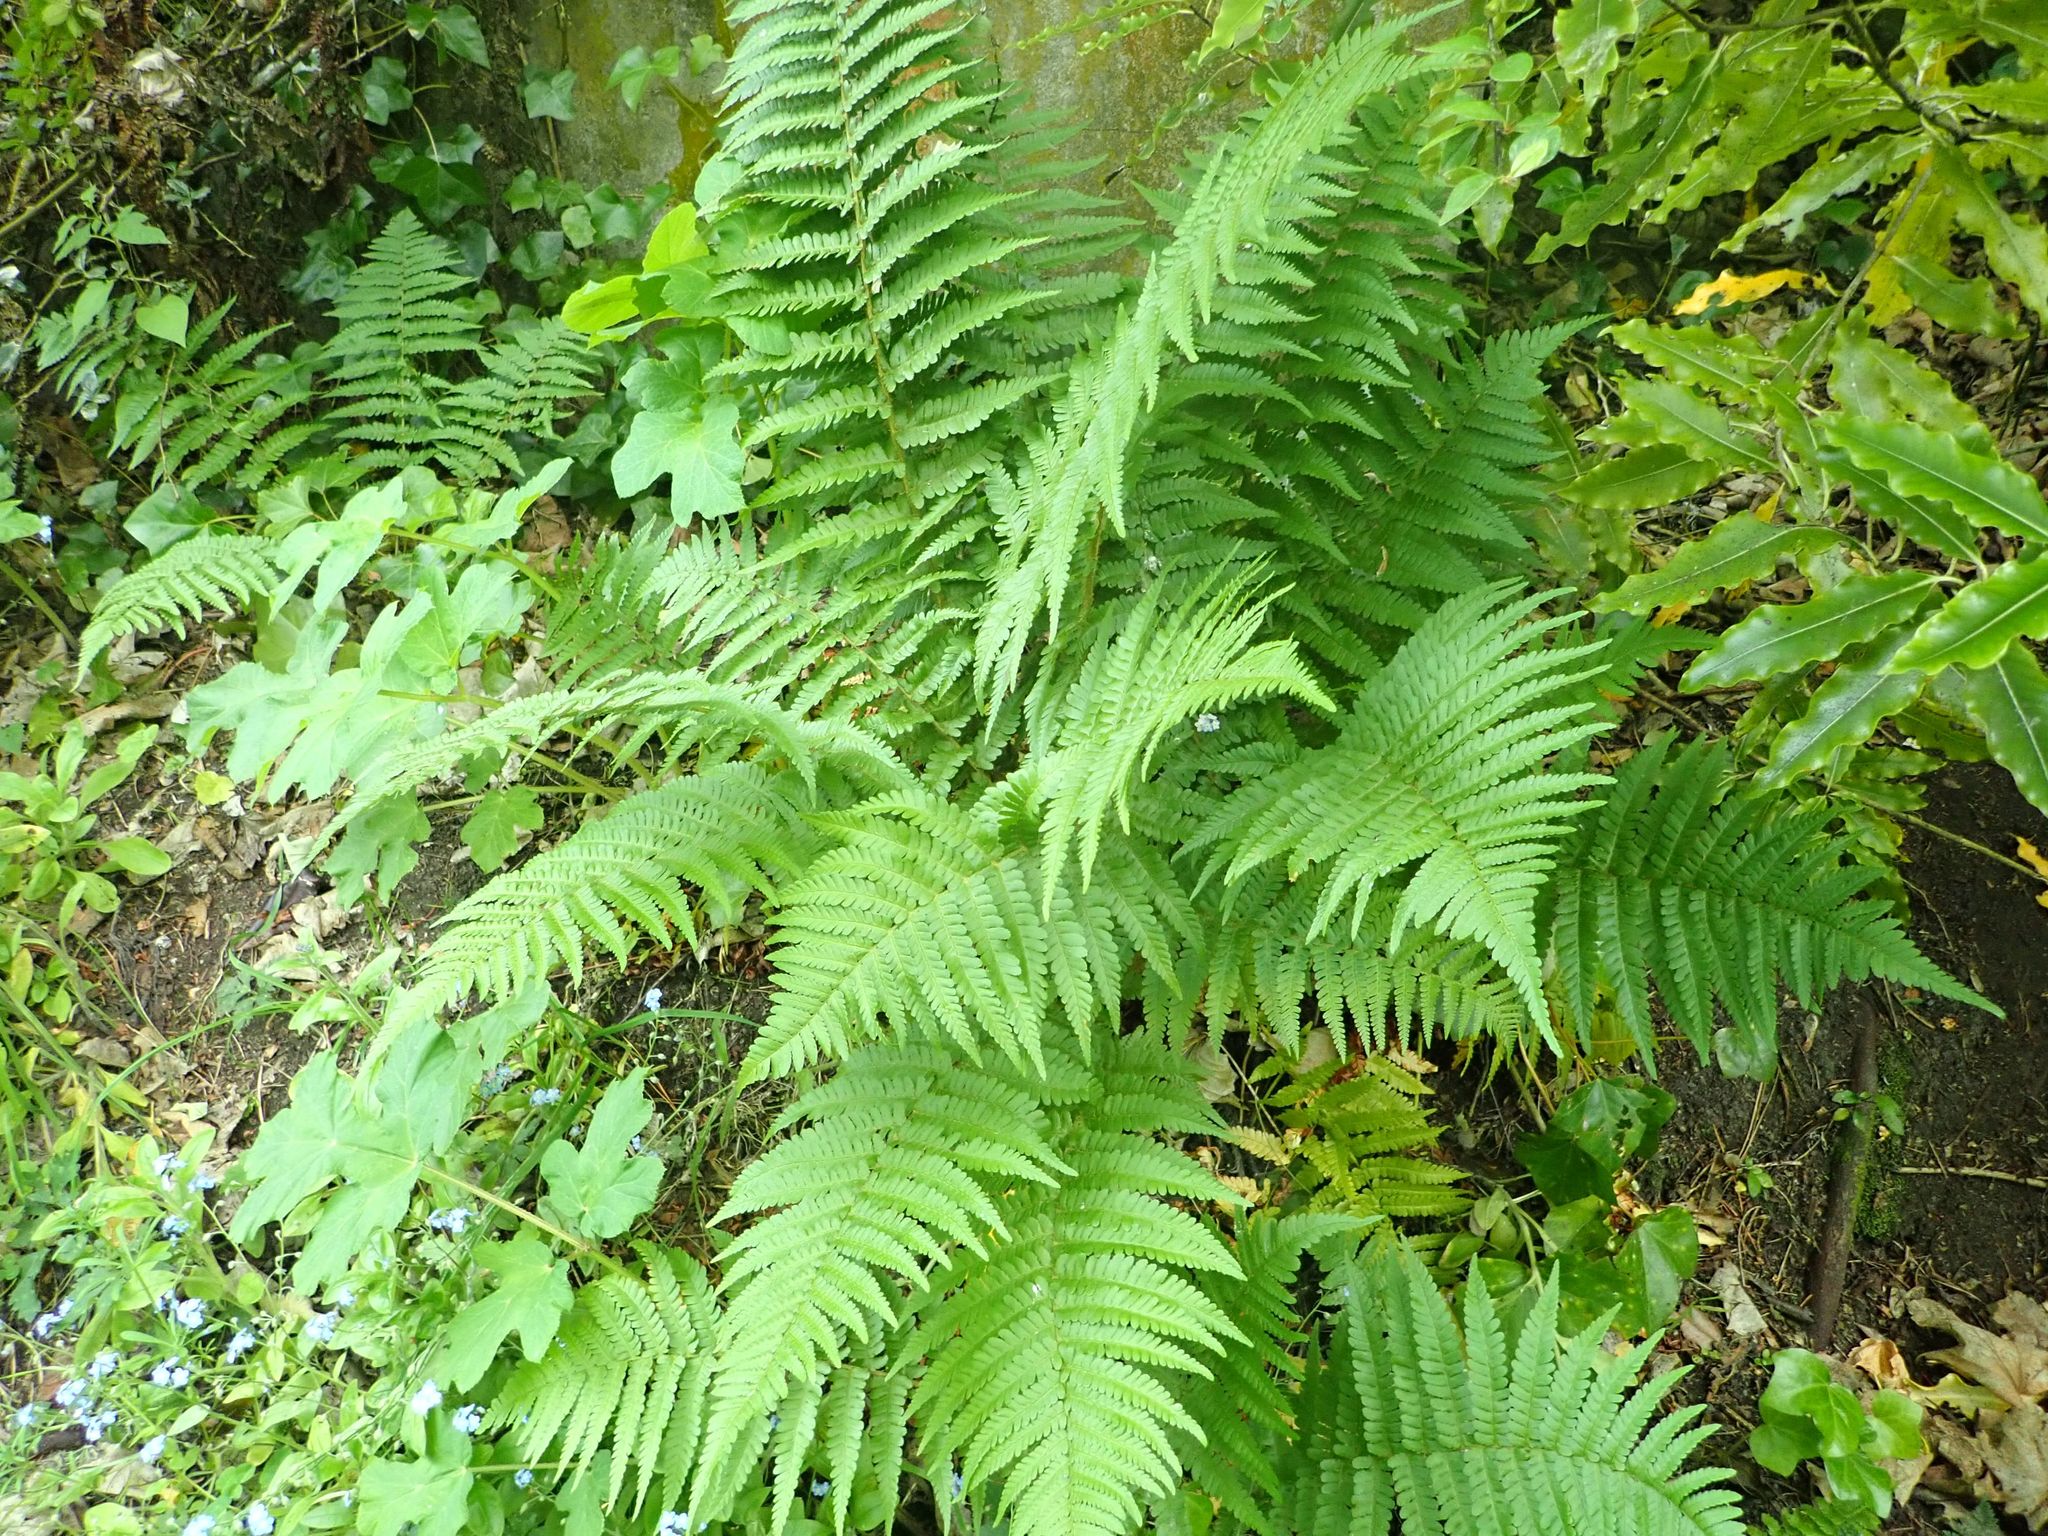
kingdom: Plantae
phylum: Tracheophyta
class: Polypodiopsida
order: Polypodiales
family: Dryopteridaceae
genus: Dryopteris
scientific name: Dryopteris filix-mas
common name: Male fern
